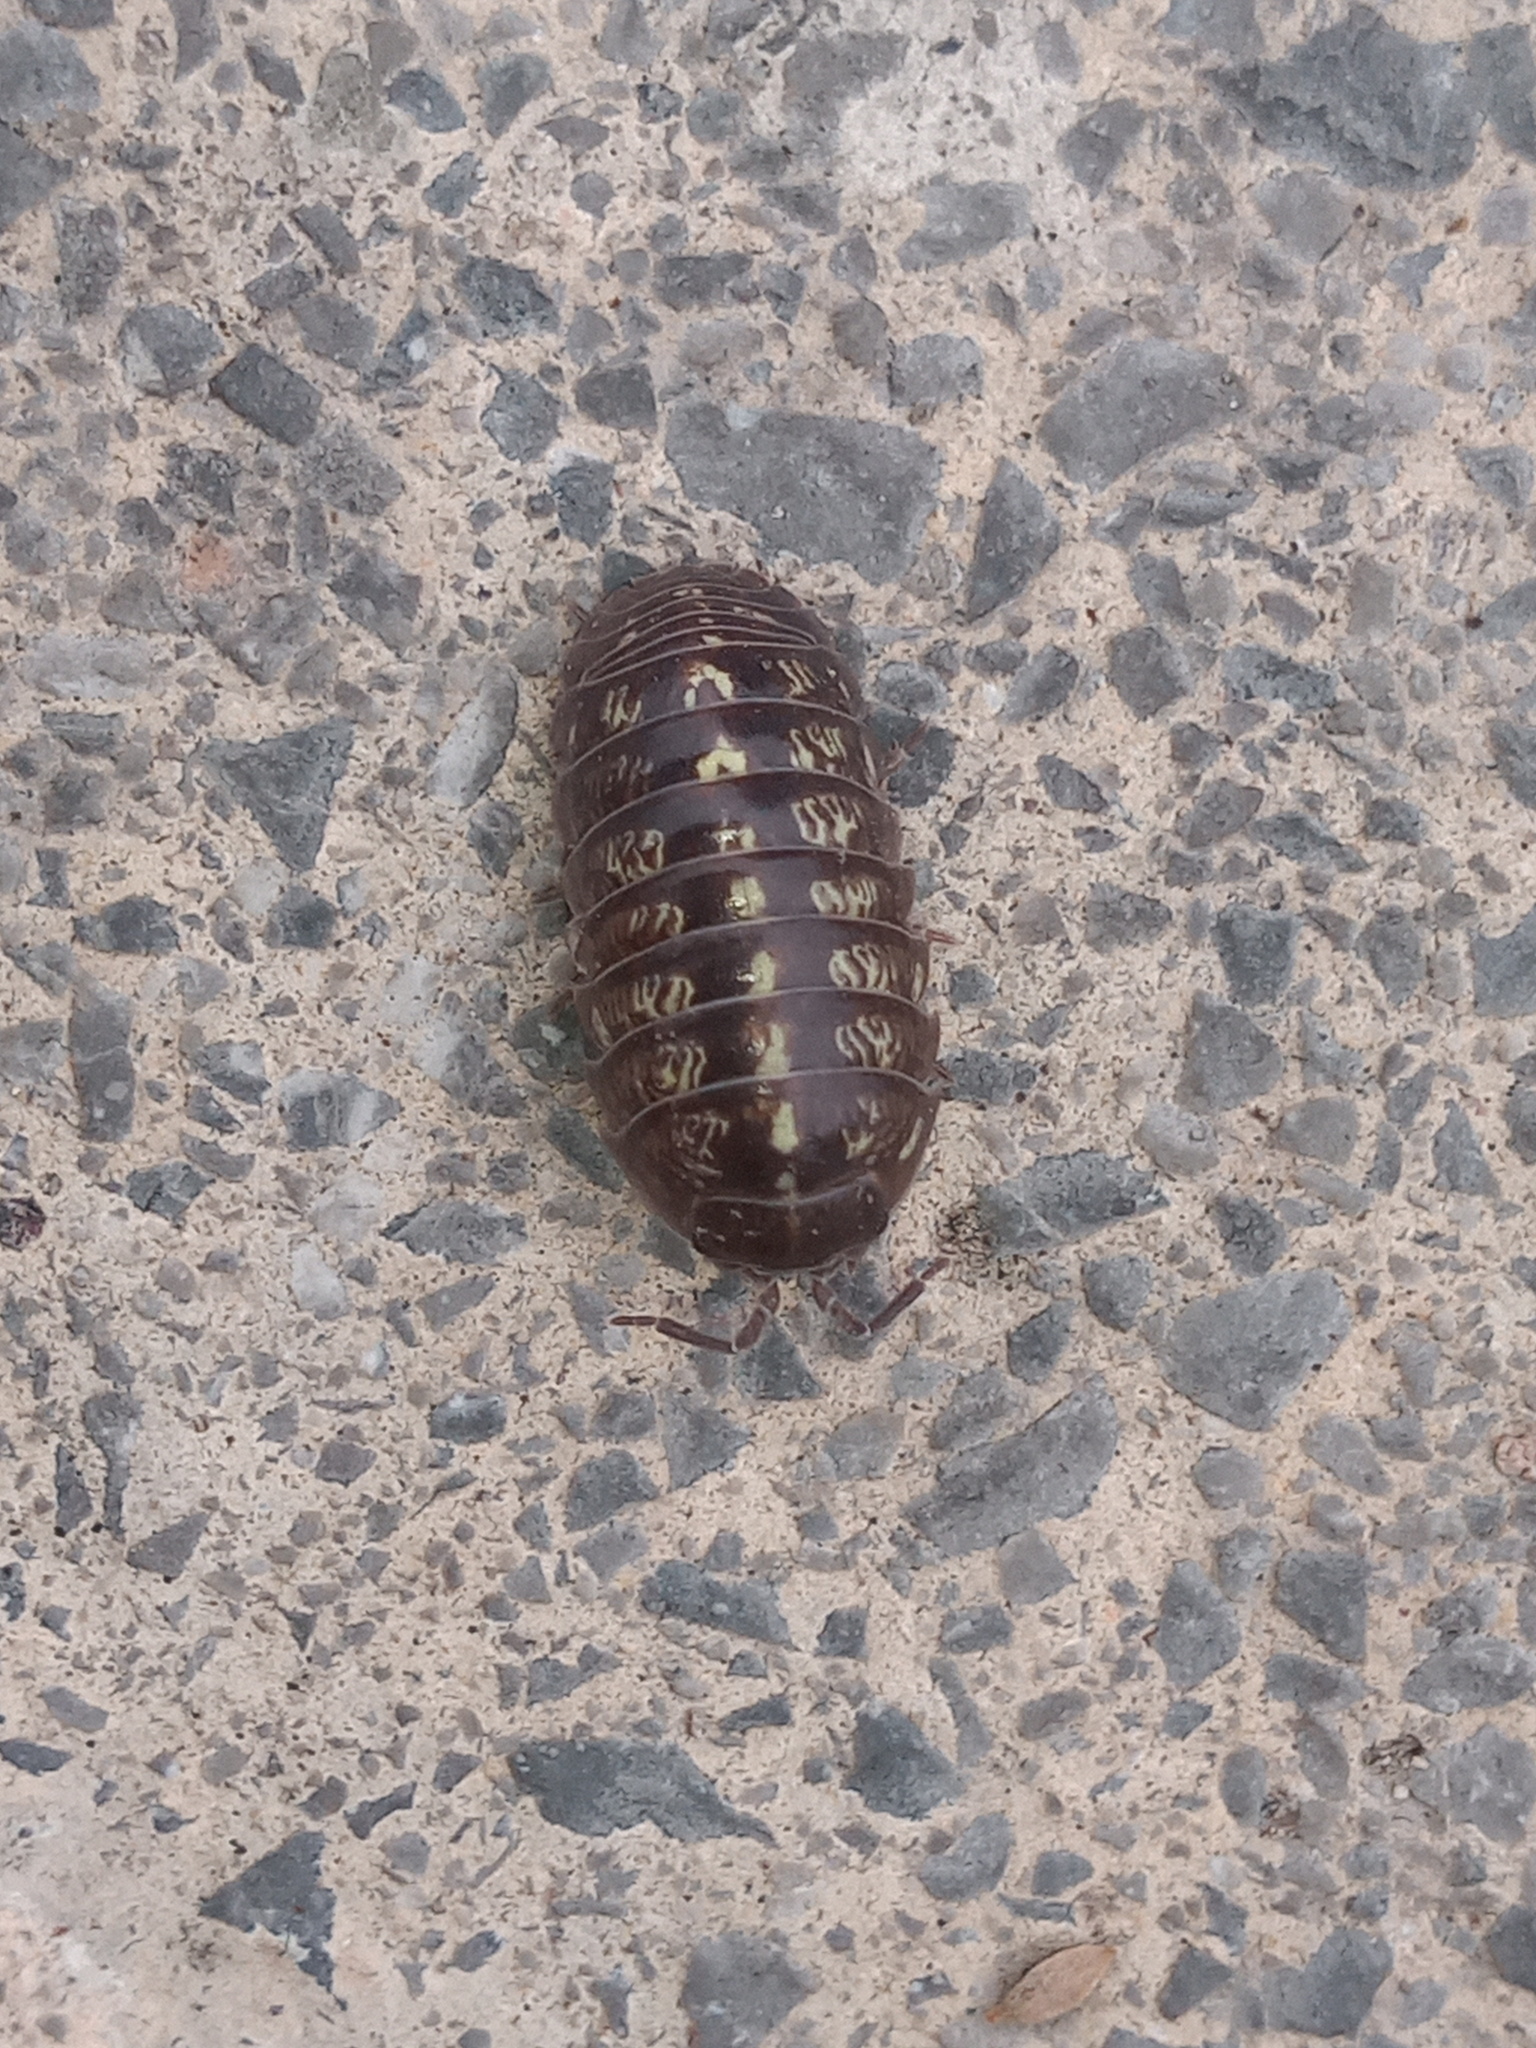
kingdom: Animalia
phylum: Arthropoda
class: Malacostraca
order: Isopoda
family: Armadillidiidae
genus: Armadillidium
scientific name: Armadillidium vulgare
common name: Common pill woodlouse
